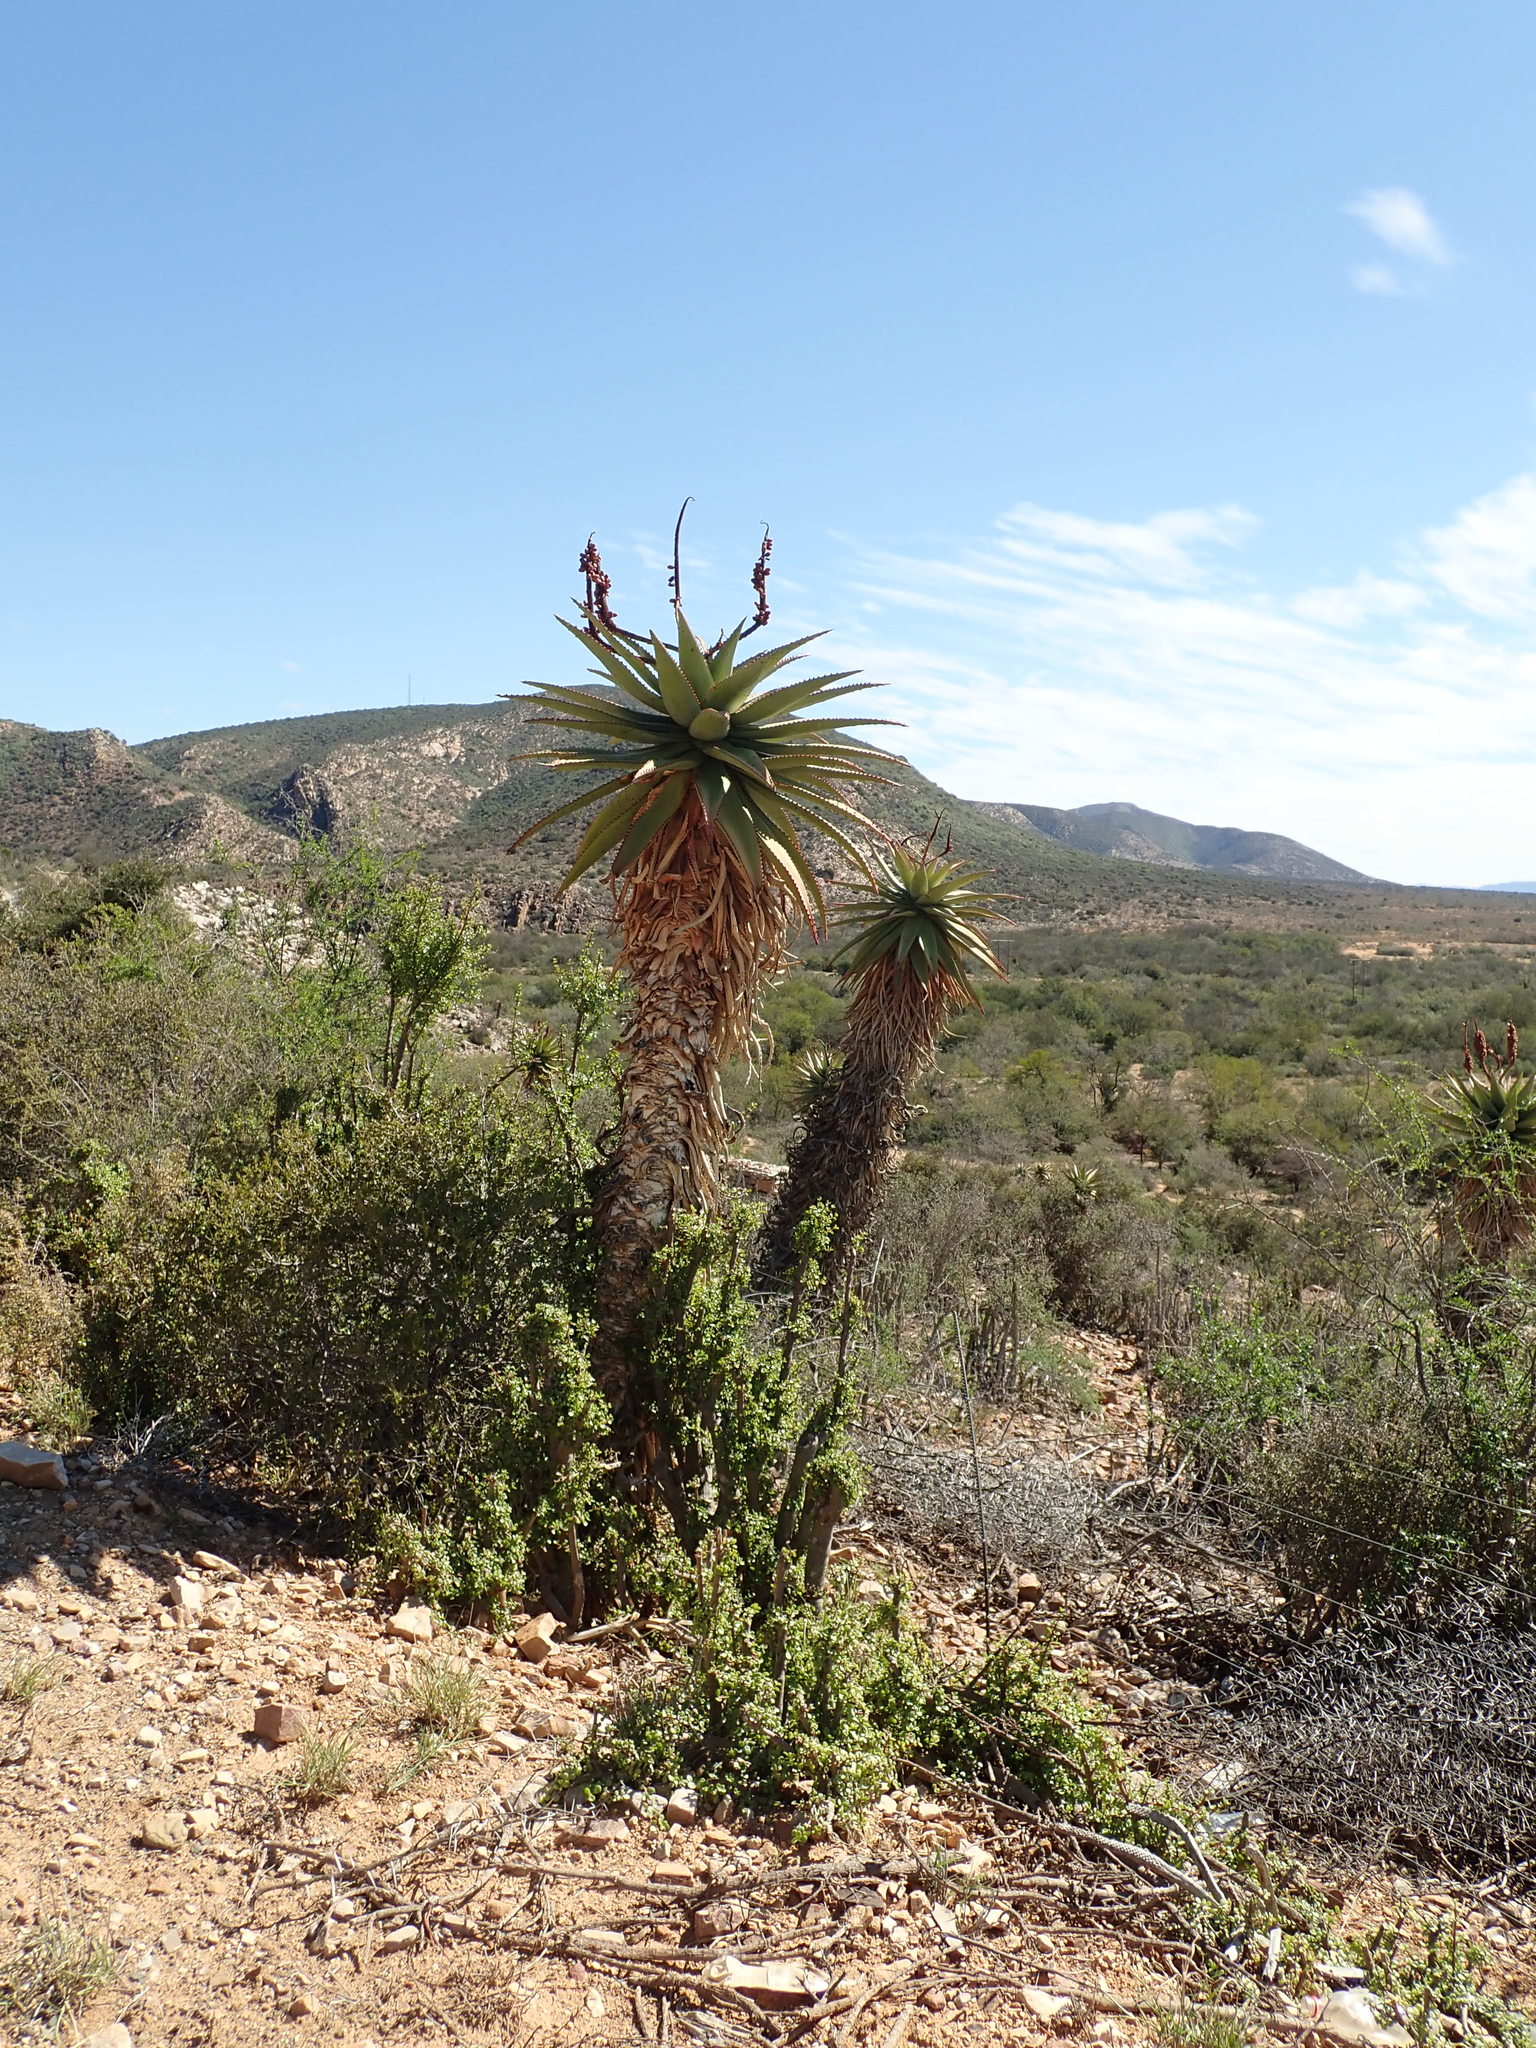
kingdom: Plantae
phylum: Tracheophyta
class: Liliopsida
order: Asparagales
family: Asphodelaceae
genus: Aloe
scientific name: Aloe ferox
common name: Bitter aloe
